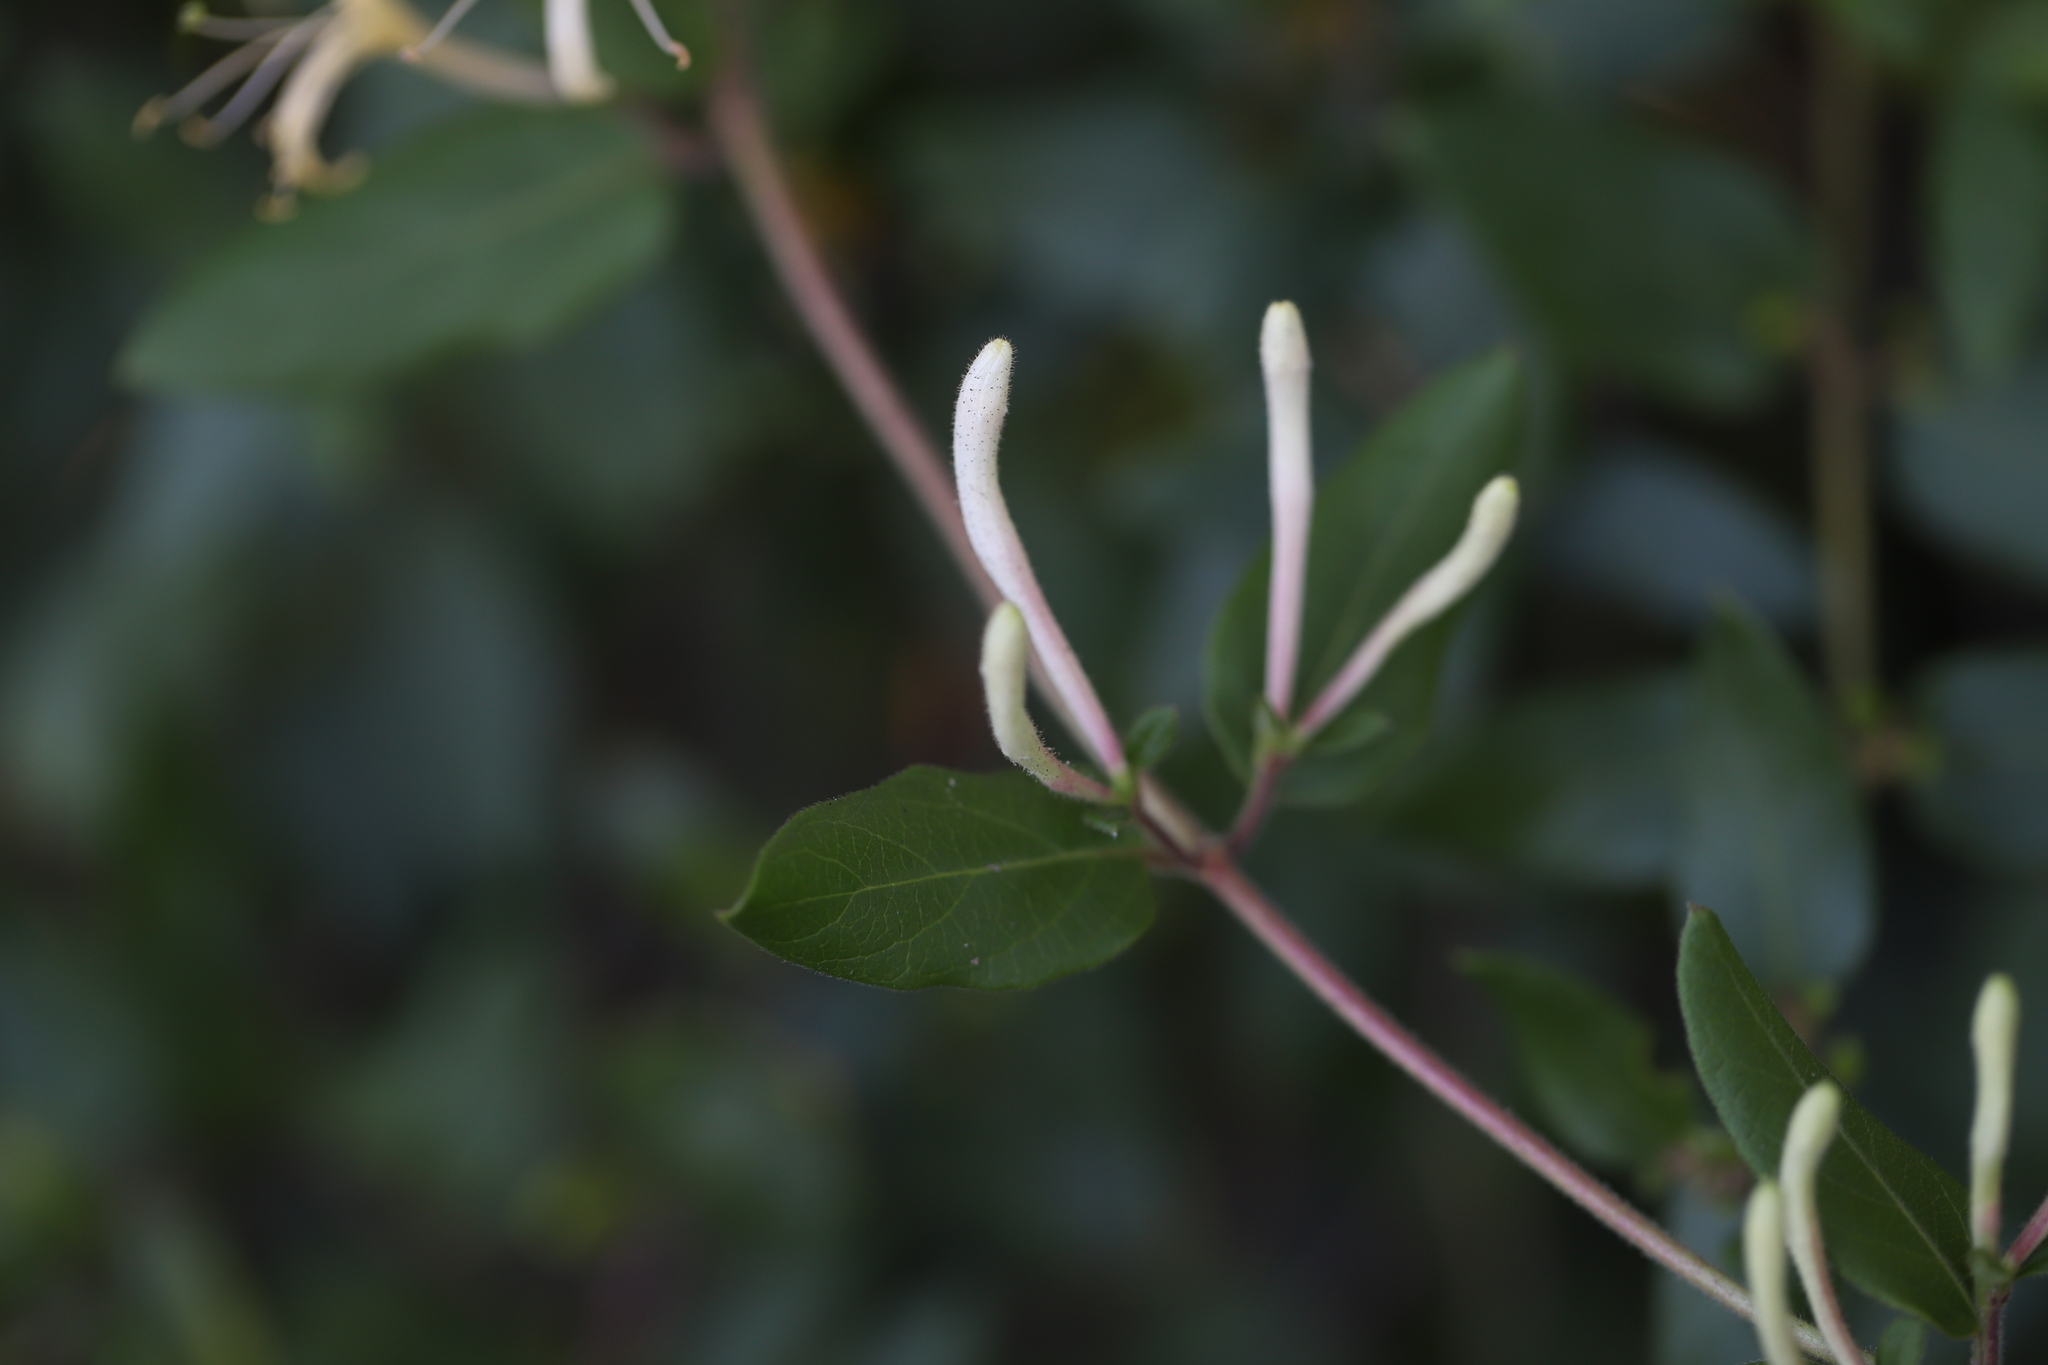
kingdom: Plantae
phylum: Tracheophyta
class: Magnoliopsida
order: Dipsacales
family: Caprifoliaceae
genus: Lonicera
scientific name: Lonicera japonica
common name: Japanese honeysuckle
